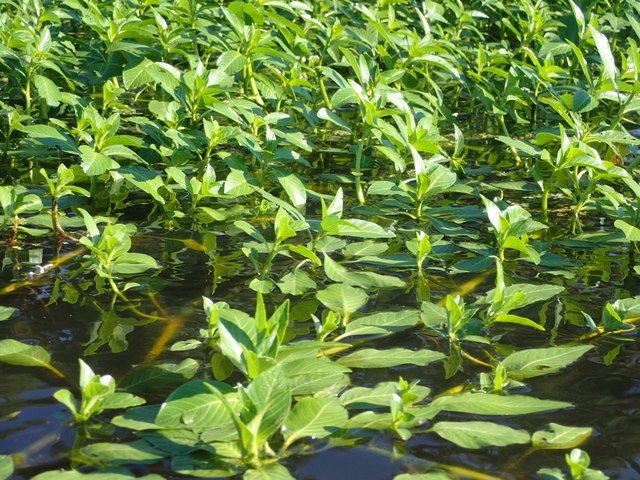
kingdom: Plantae
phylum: Tracheophyta
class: Magnoliopsida
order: Myrtales
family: Onagraceae
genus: Ludwigia
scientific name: Ludwigia peploides
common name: Floating primrose-willow
